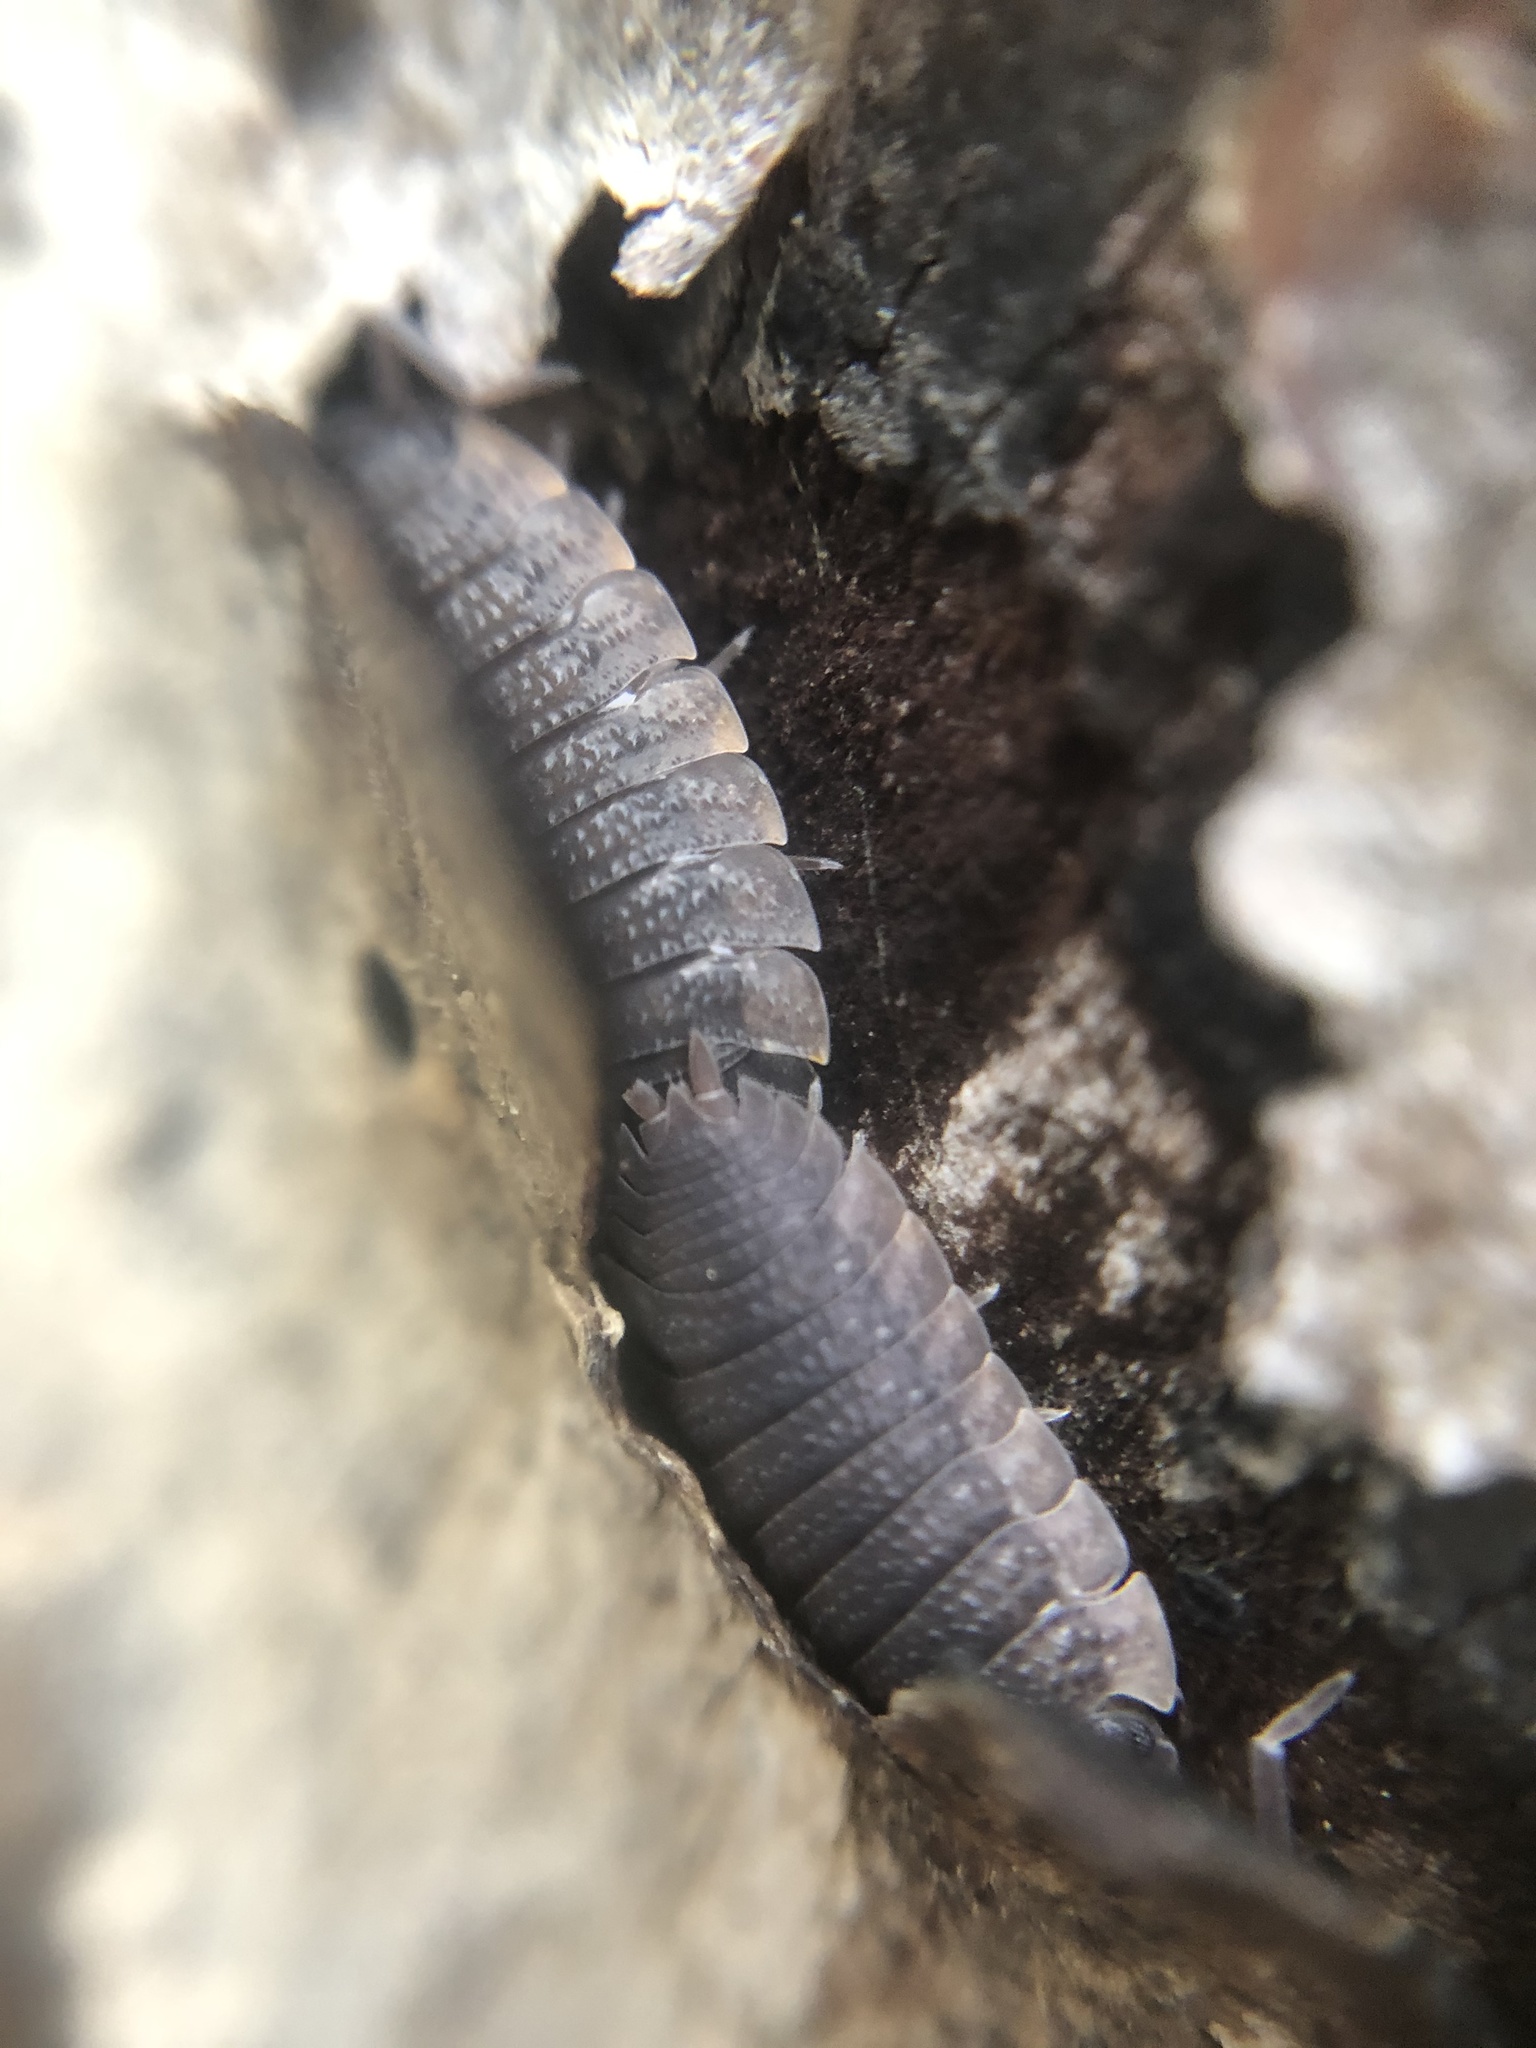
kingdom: Animalia
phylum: Arthropoda
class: Malacostraca
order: Isopoda
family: Porcellionidae
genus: Porcellio
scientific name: Porcellio scaber
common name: Common rough woodlouse
